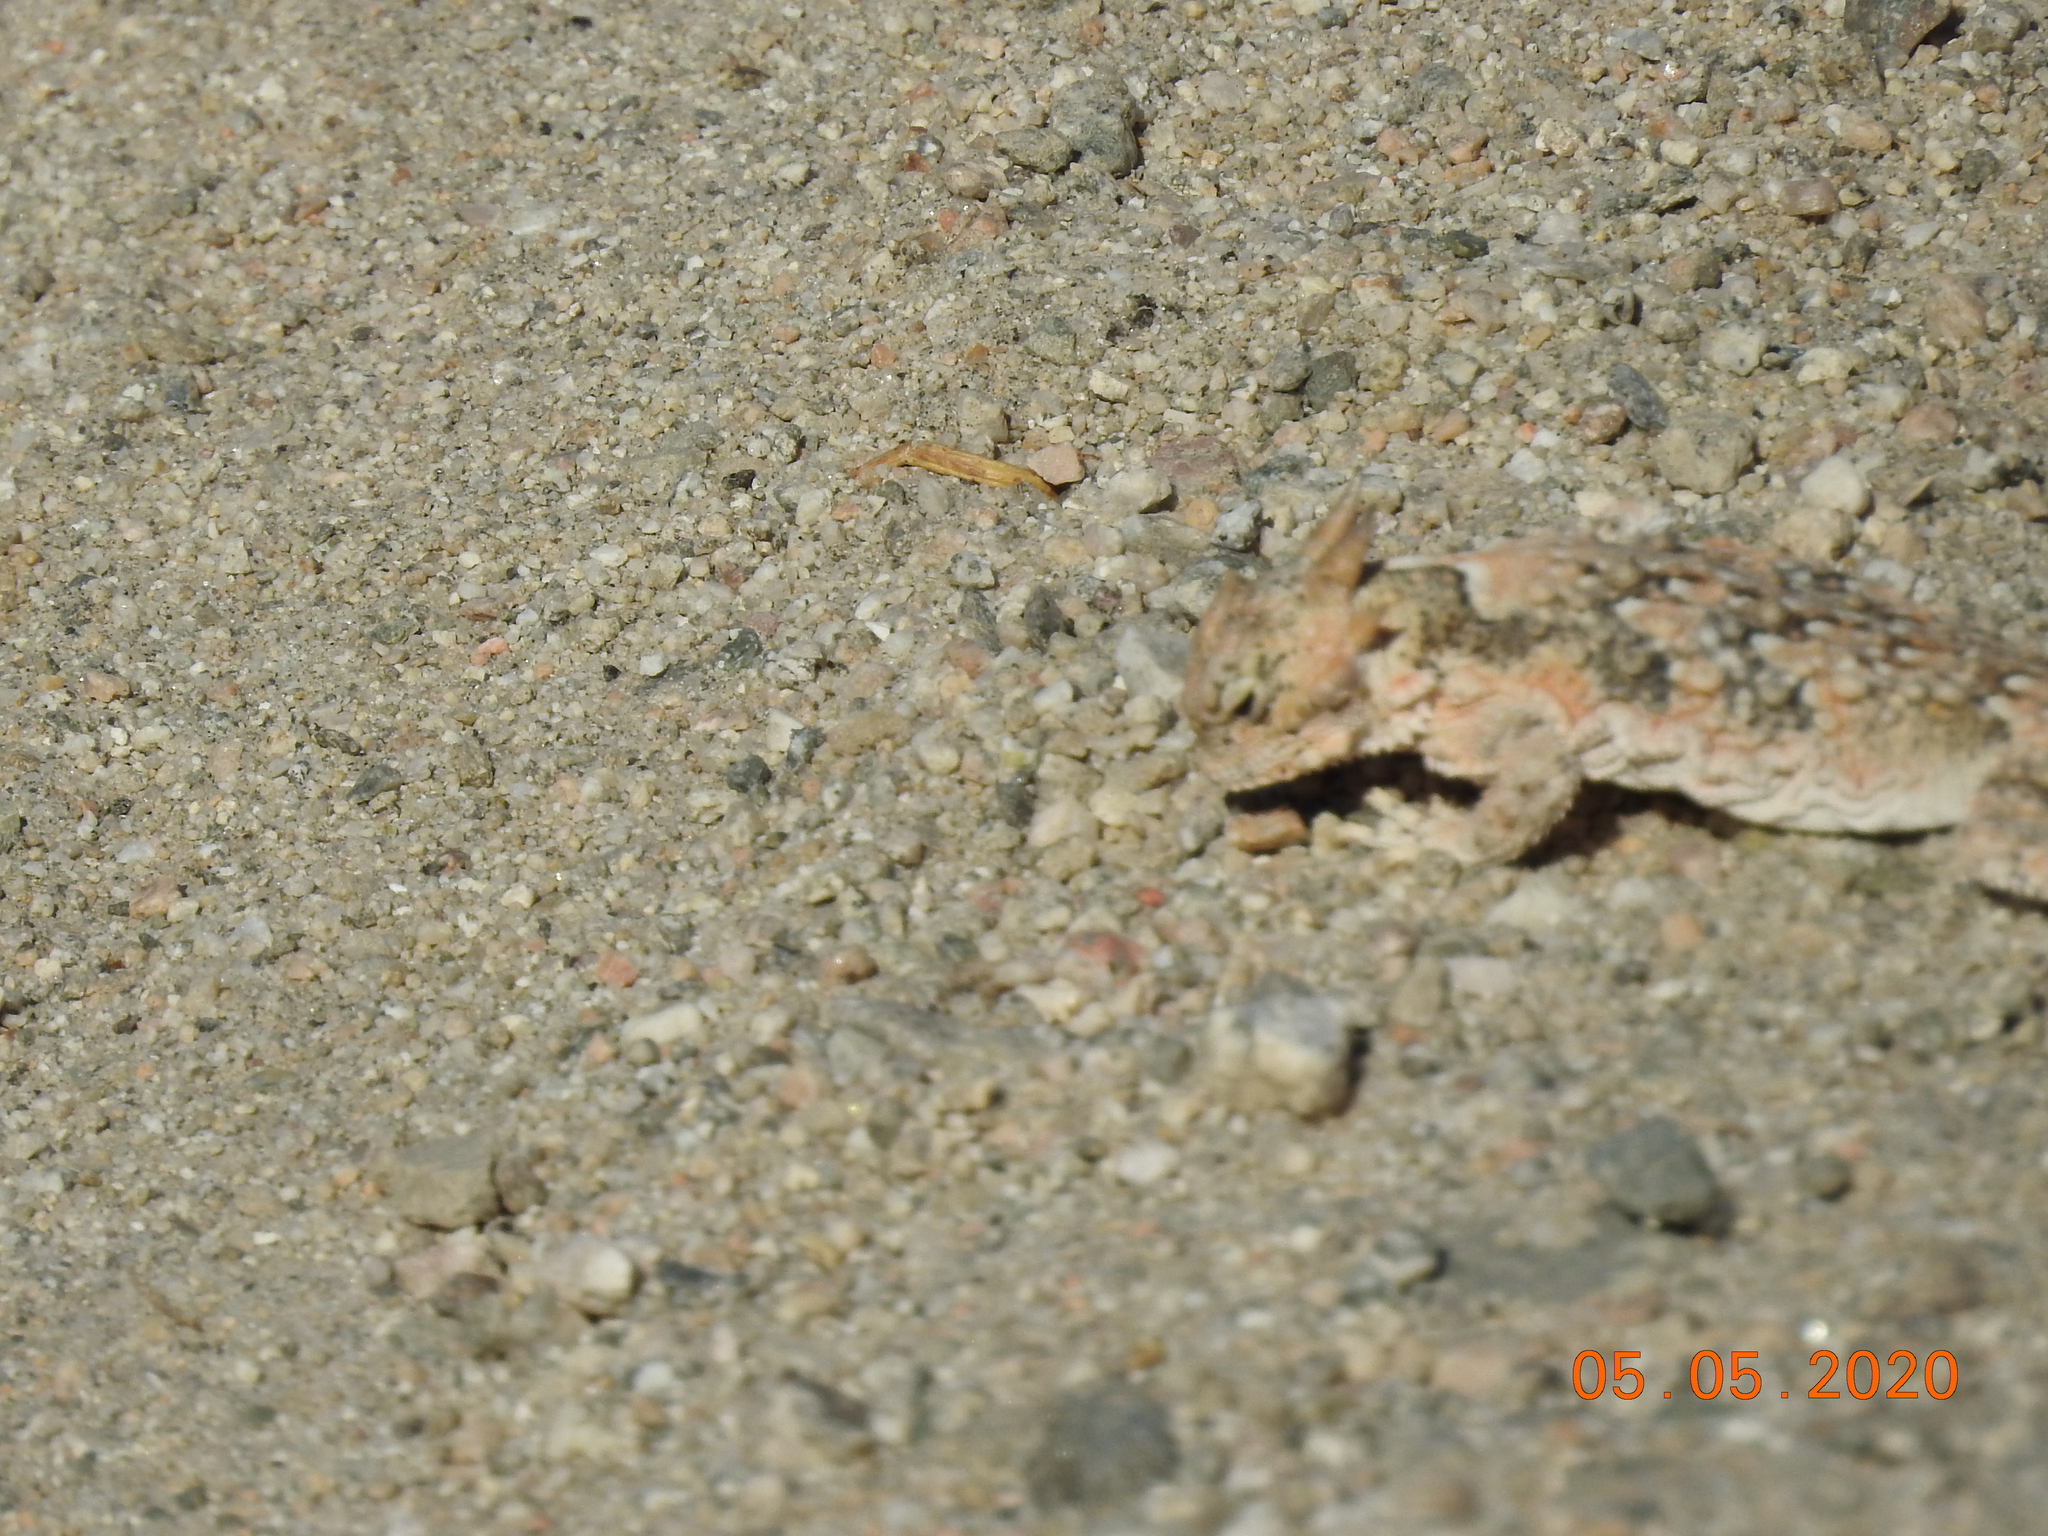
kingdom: Animalia
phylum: Chordata
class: Squamata
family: Phrynosomatidae
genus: Phrynosoma
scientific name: Phrynosoma platyrhinos
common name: Desert horned lizard
